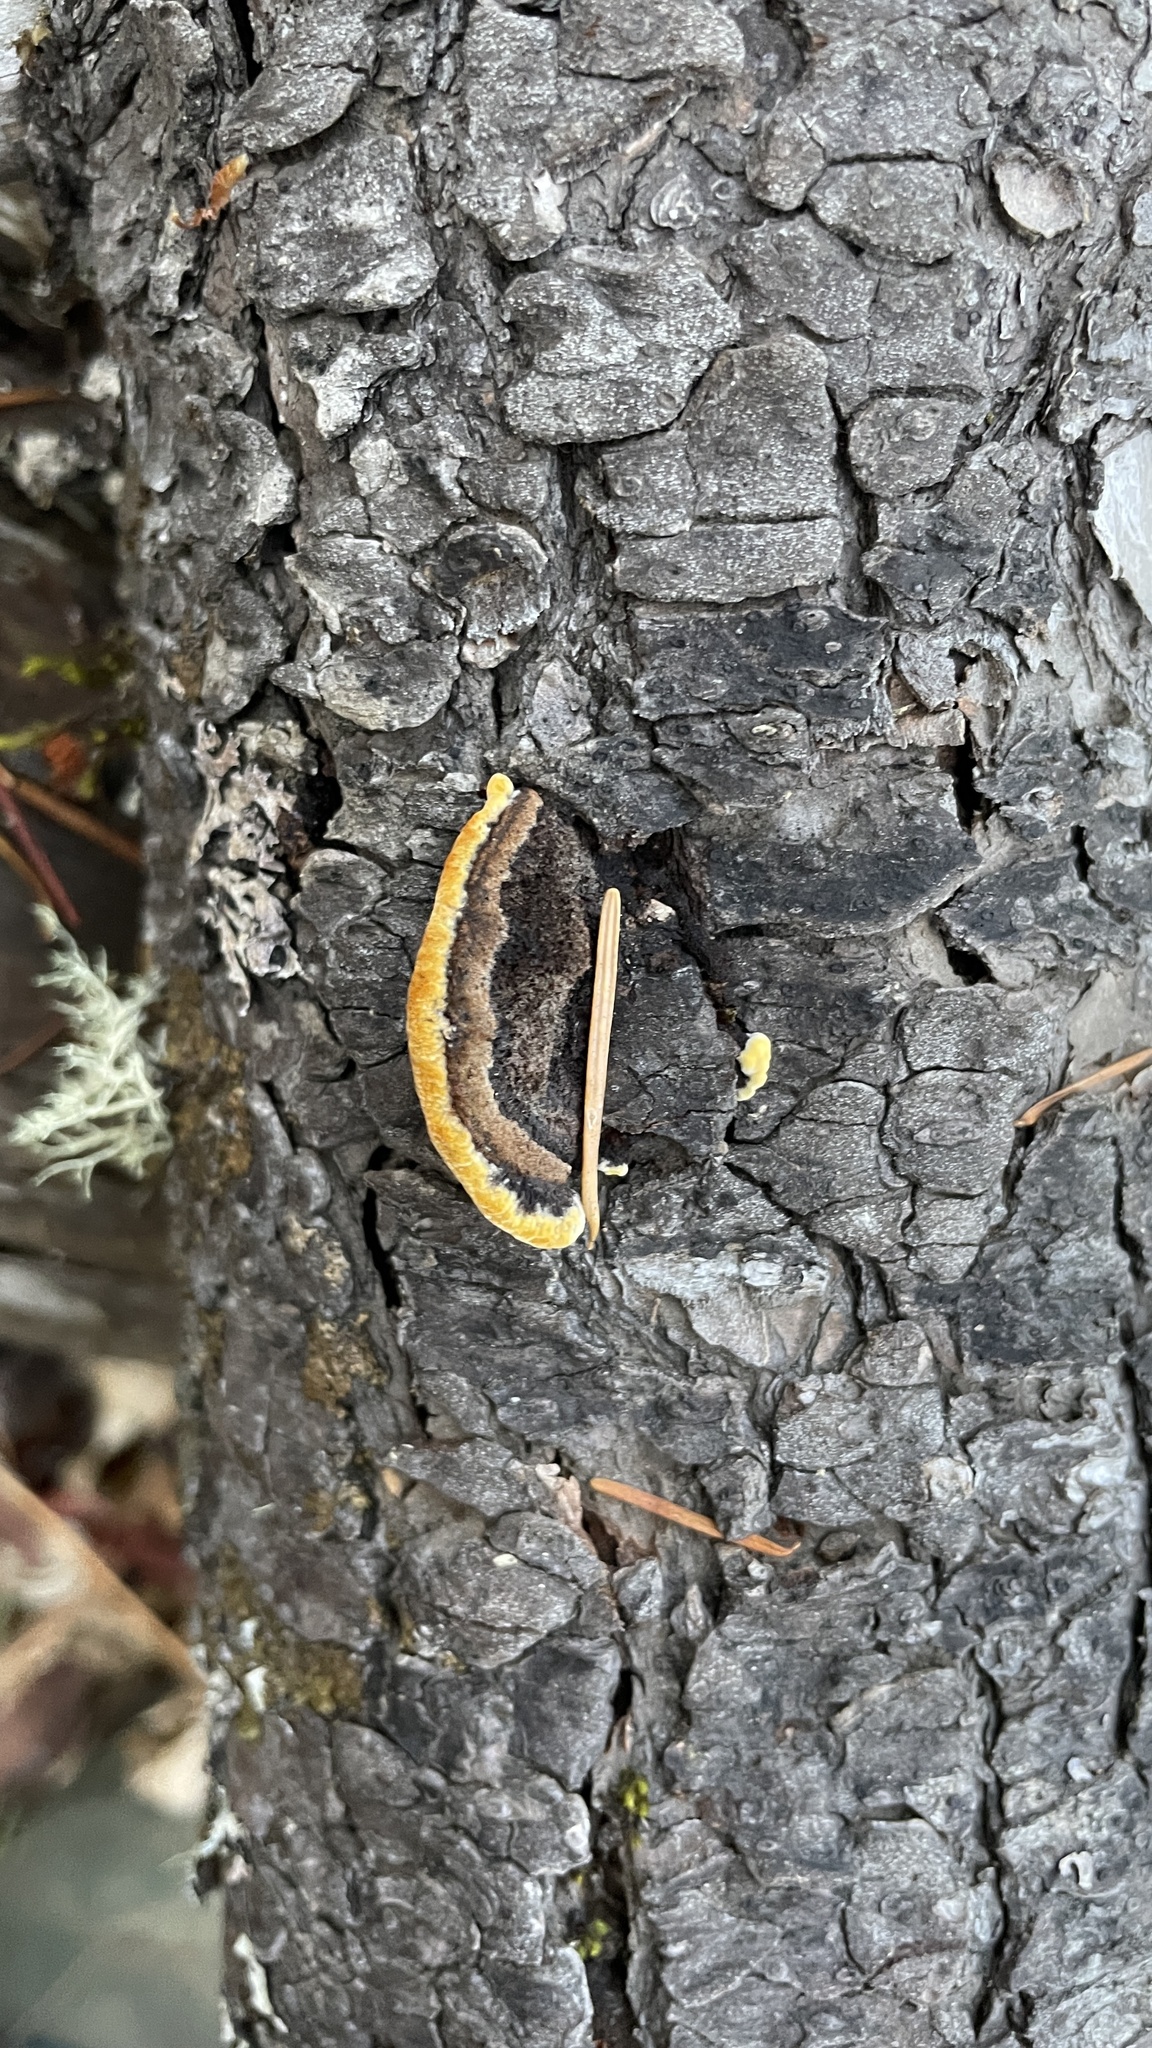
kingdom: Fungi
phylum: Basidiomycota
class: Agaricomycetes
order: Gloeophyllales
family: Gloeophyllaceae
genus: Gloeophyllum
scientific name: Gloeophyllum sepiarium
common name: Conifer mazegill
